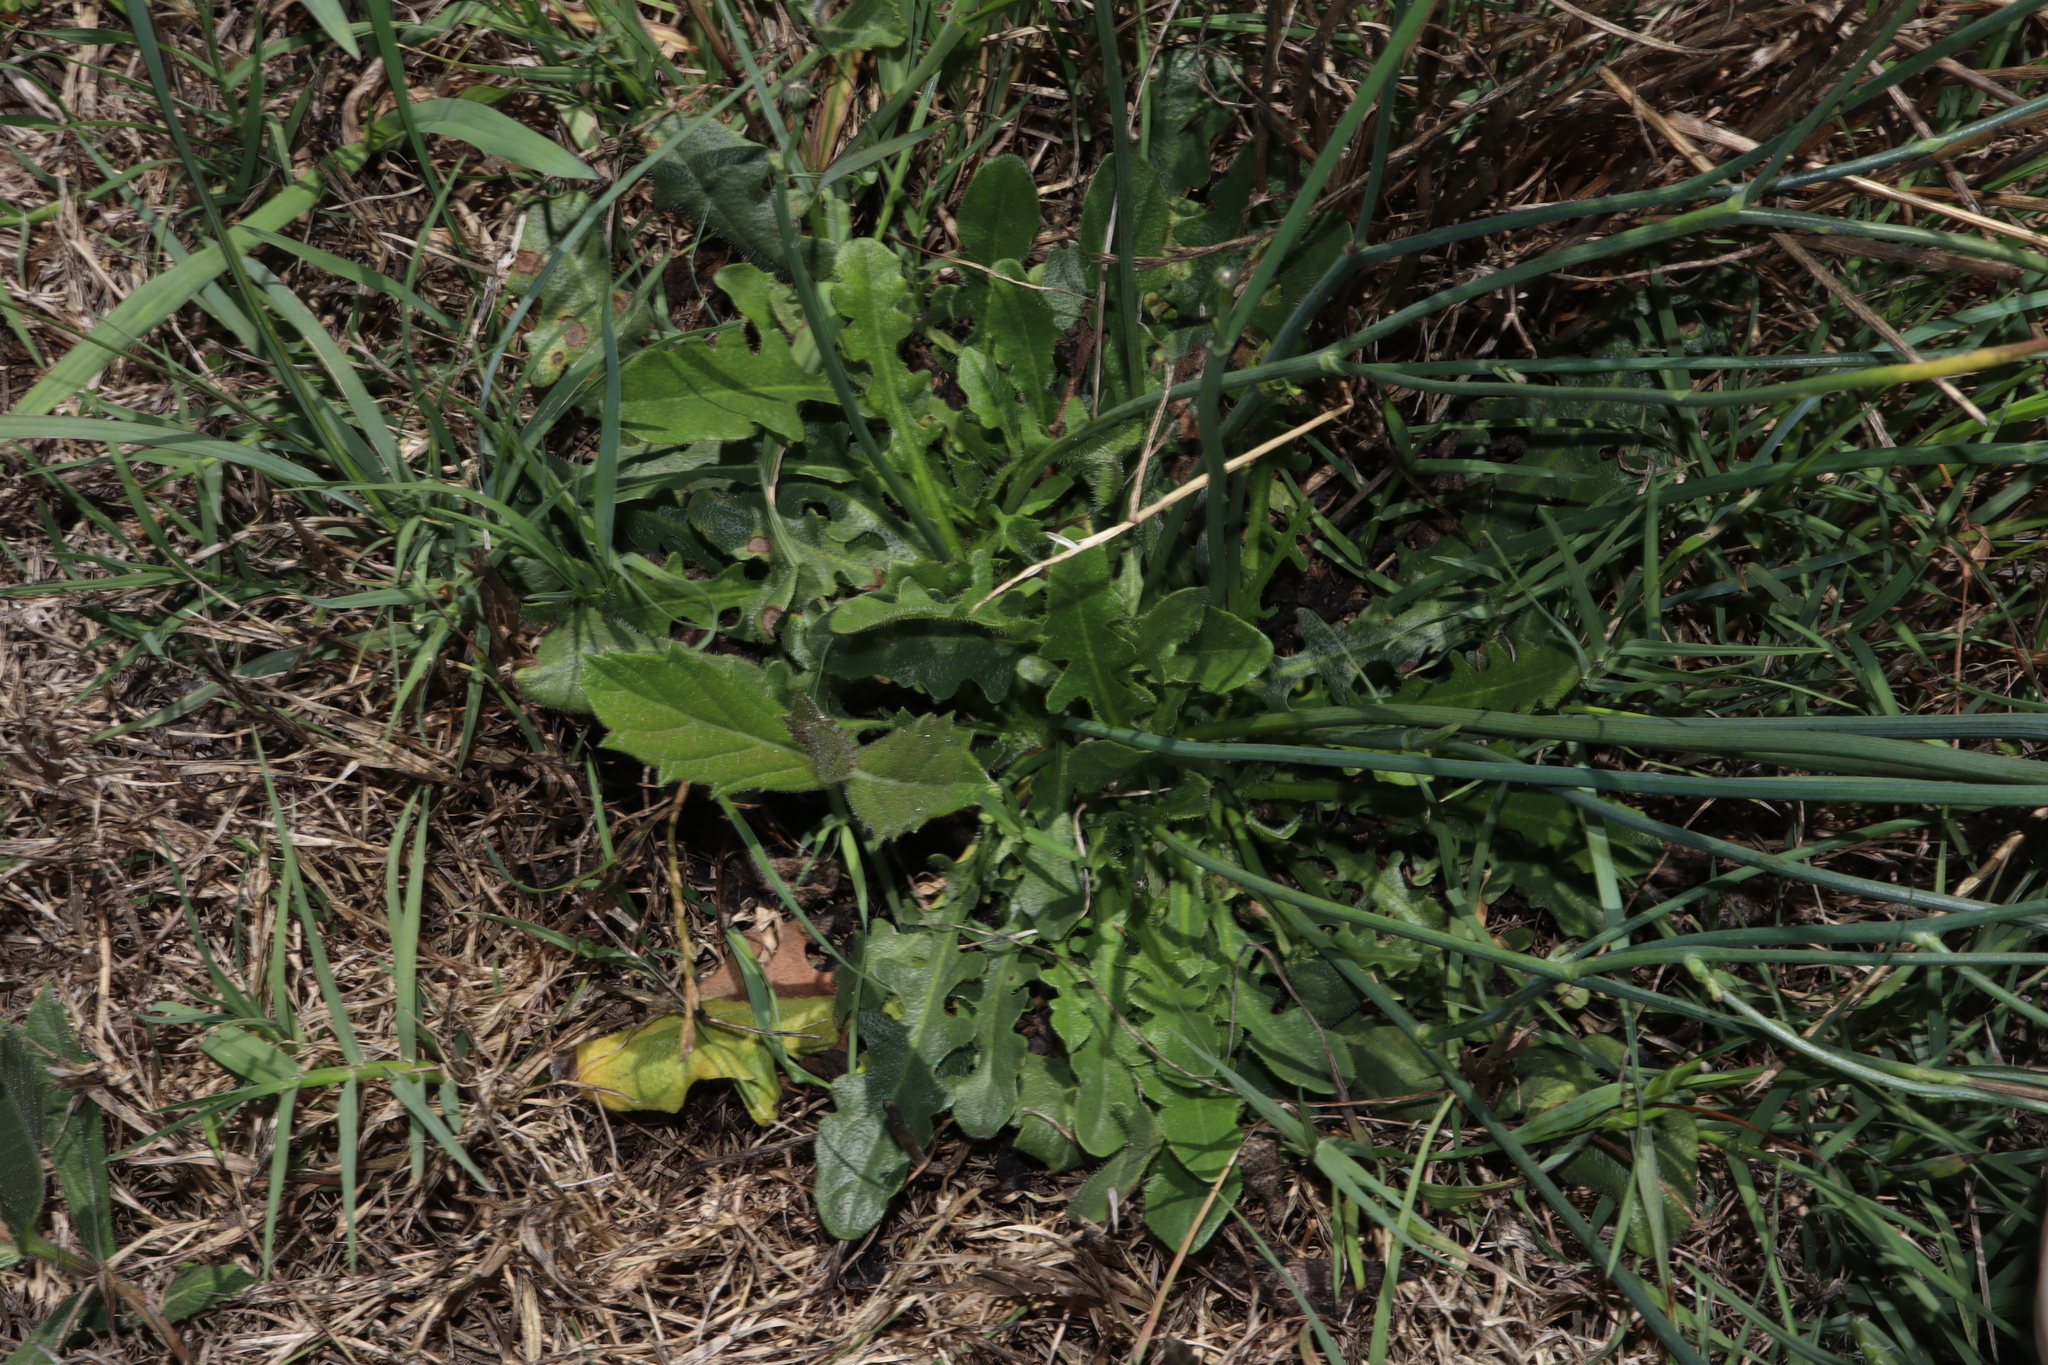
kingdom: Plantae
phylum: Tracheophyta
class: Magnoliopsida
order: Asterales
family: Asteraceae
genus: Hypochaeris
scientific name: Hypochaeris radicata
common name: Flatweed
